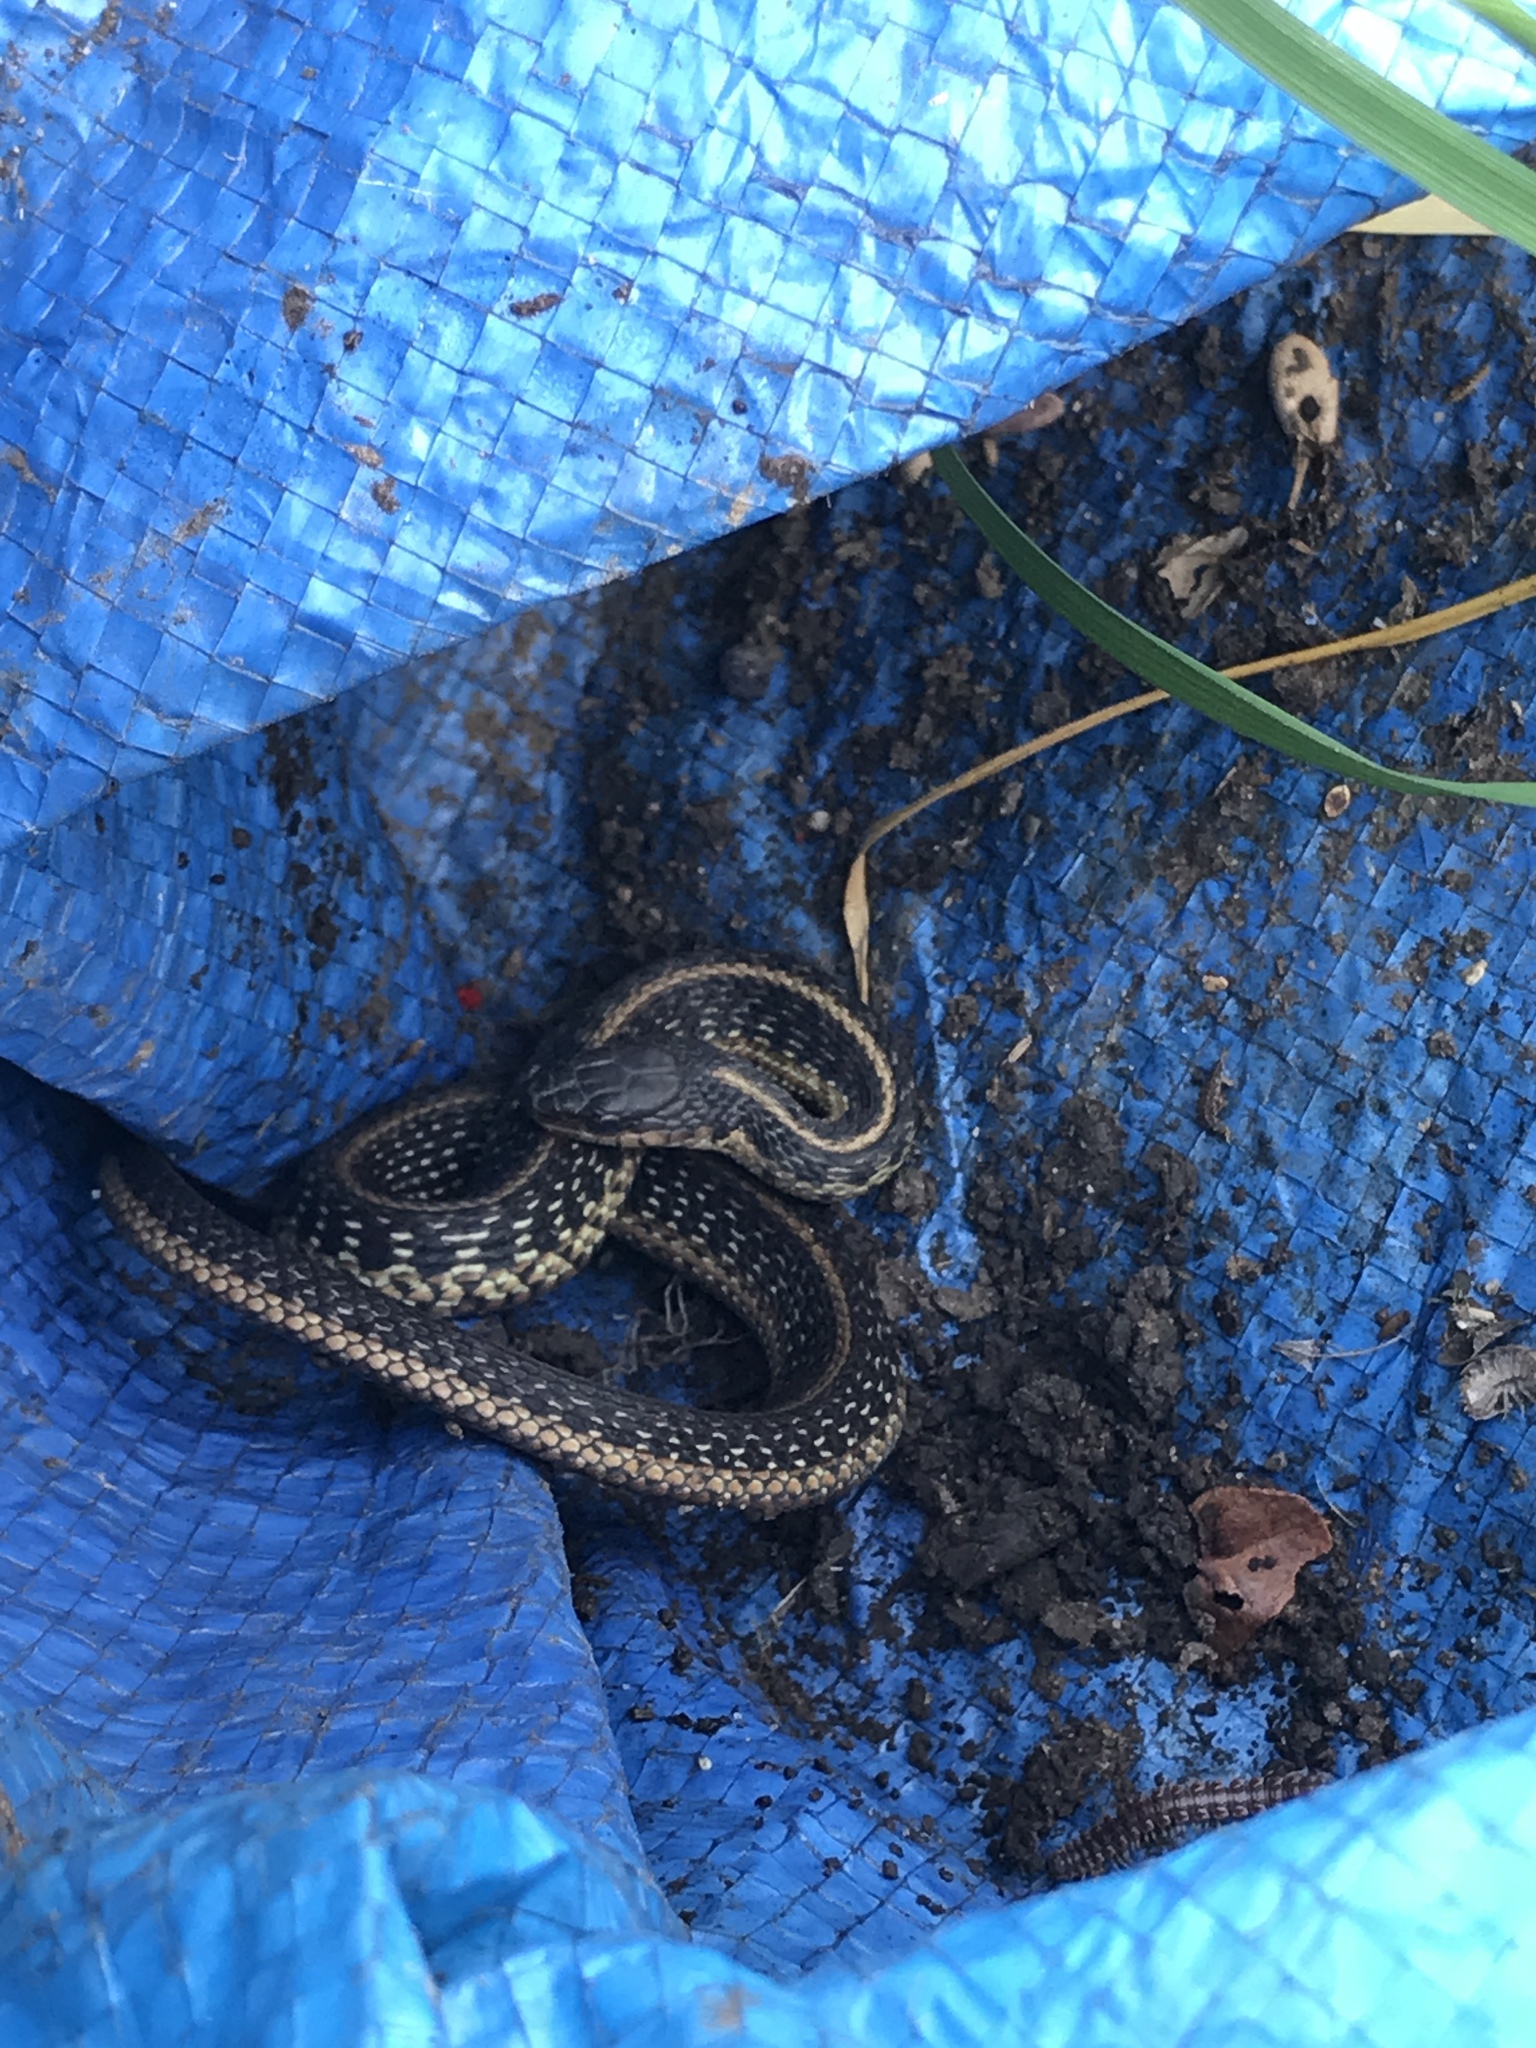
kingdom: Animalia
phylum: Chordata
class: Squamata
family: Colubridae
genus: Thamnophis
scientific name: Thamnophis sirtalis
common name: Common garter snake
